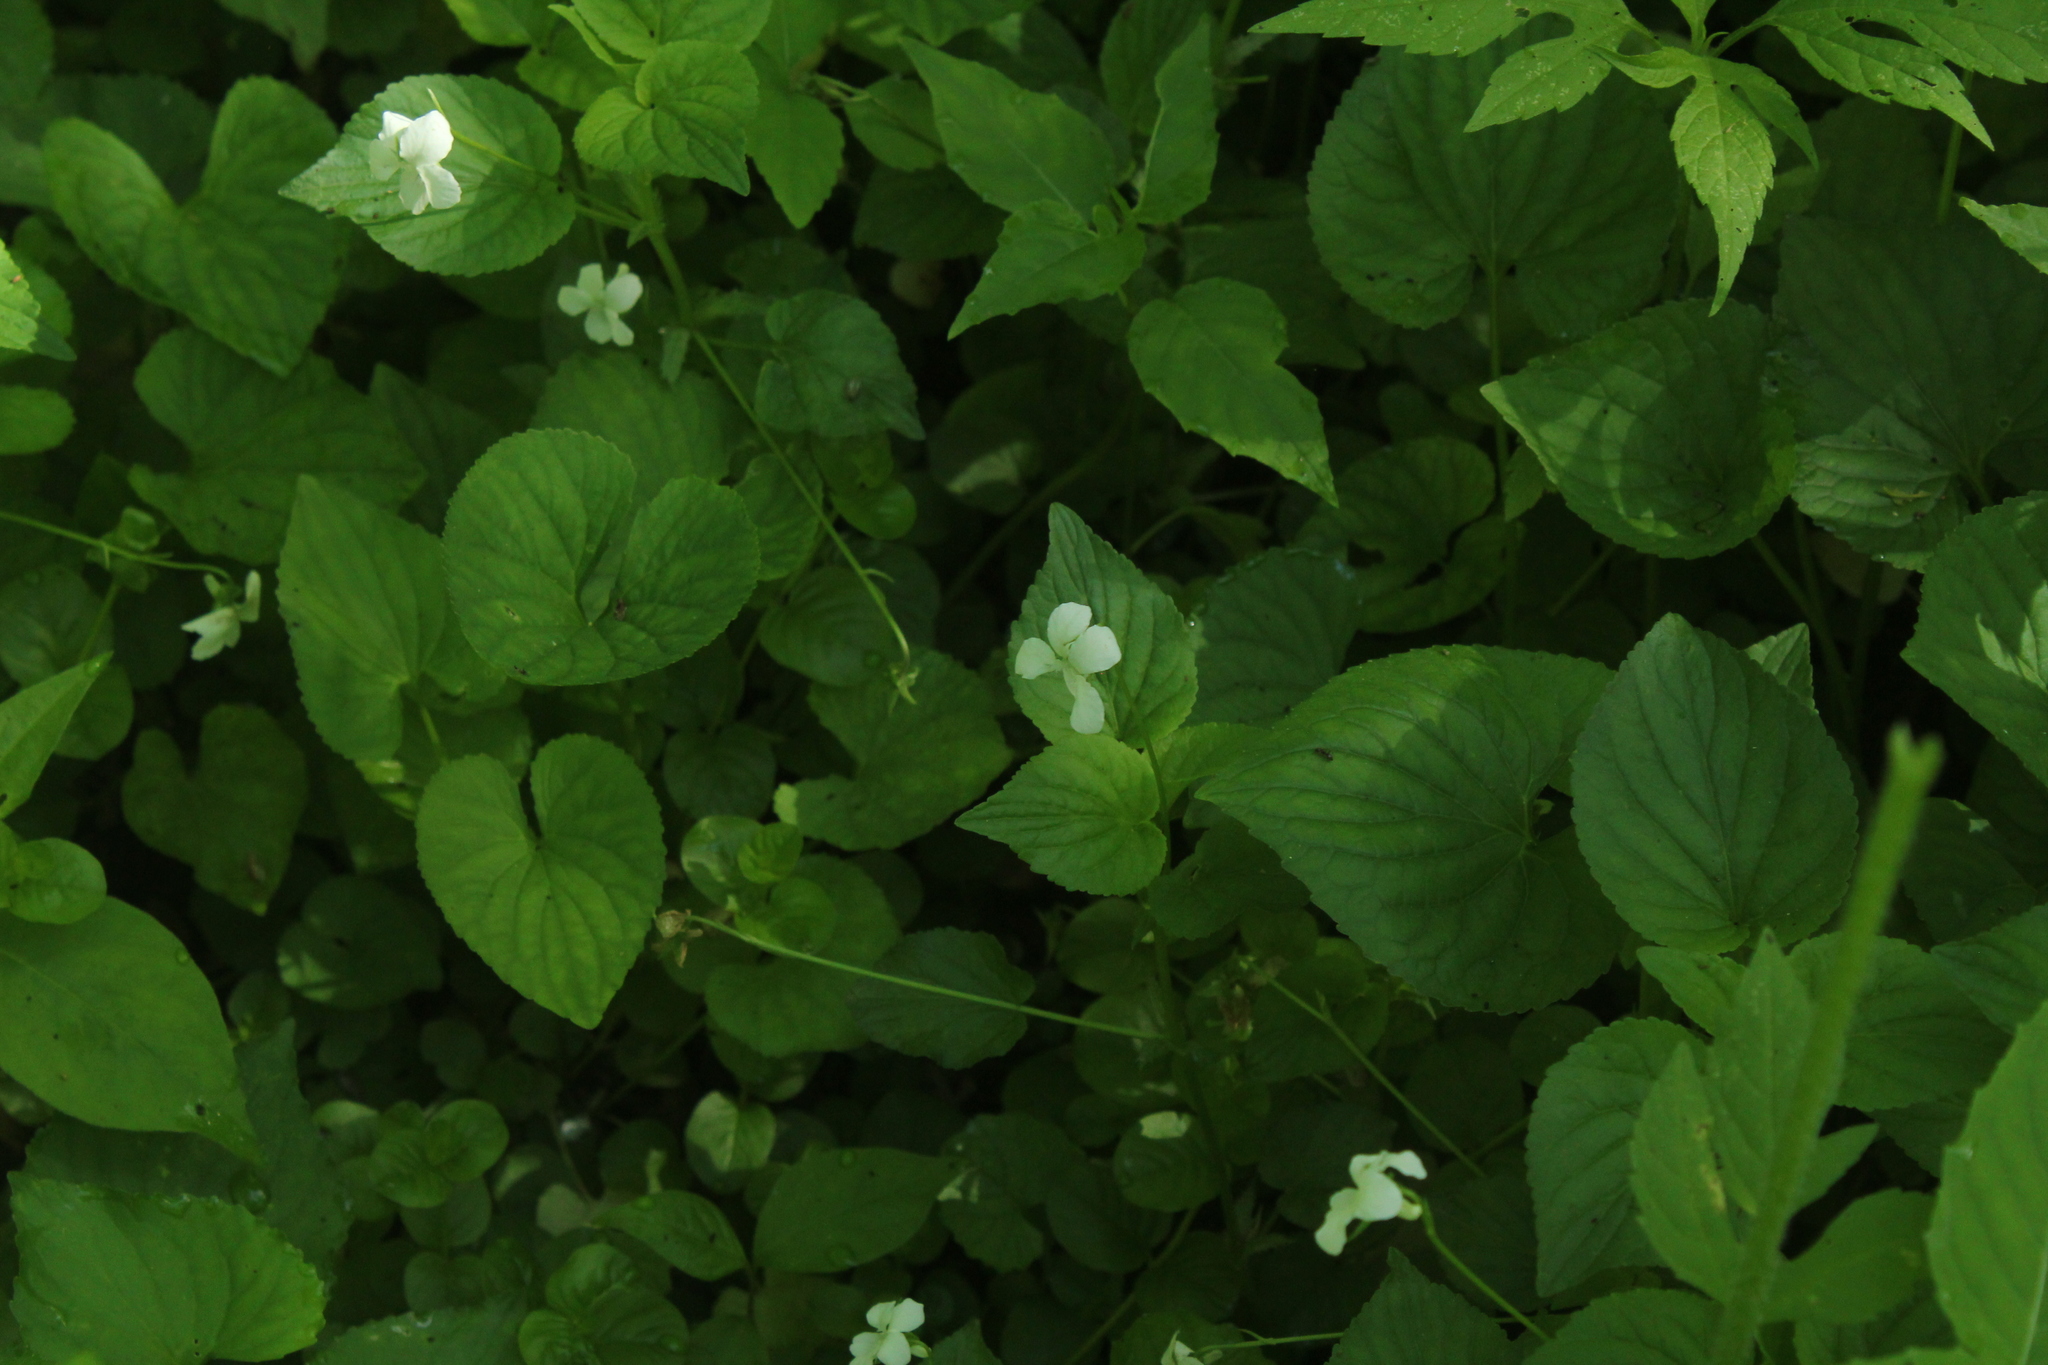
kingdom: Plantae
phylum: Tracheophyta
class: Magnoliopsida
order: Malpighiales
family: Violaceae
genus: Viola
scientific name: Viola striata
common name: Cream violet
